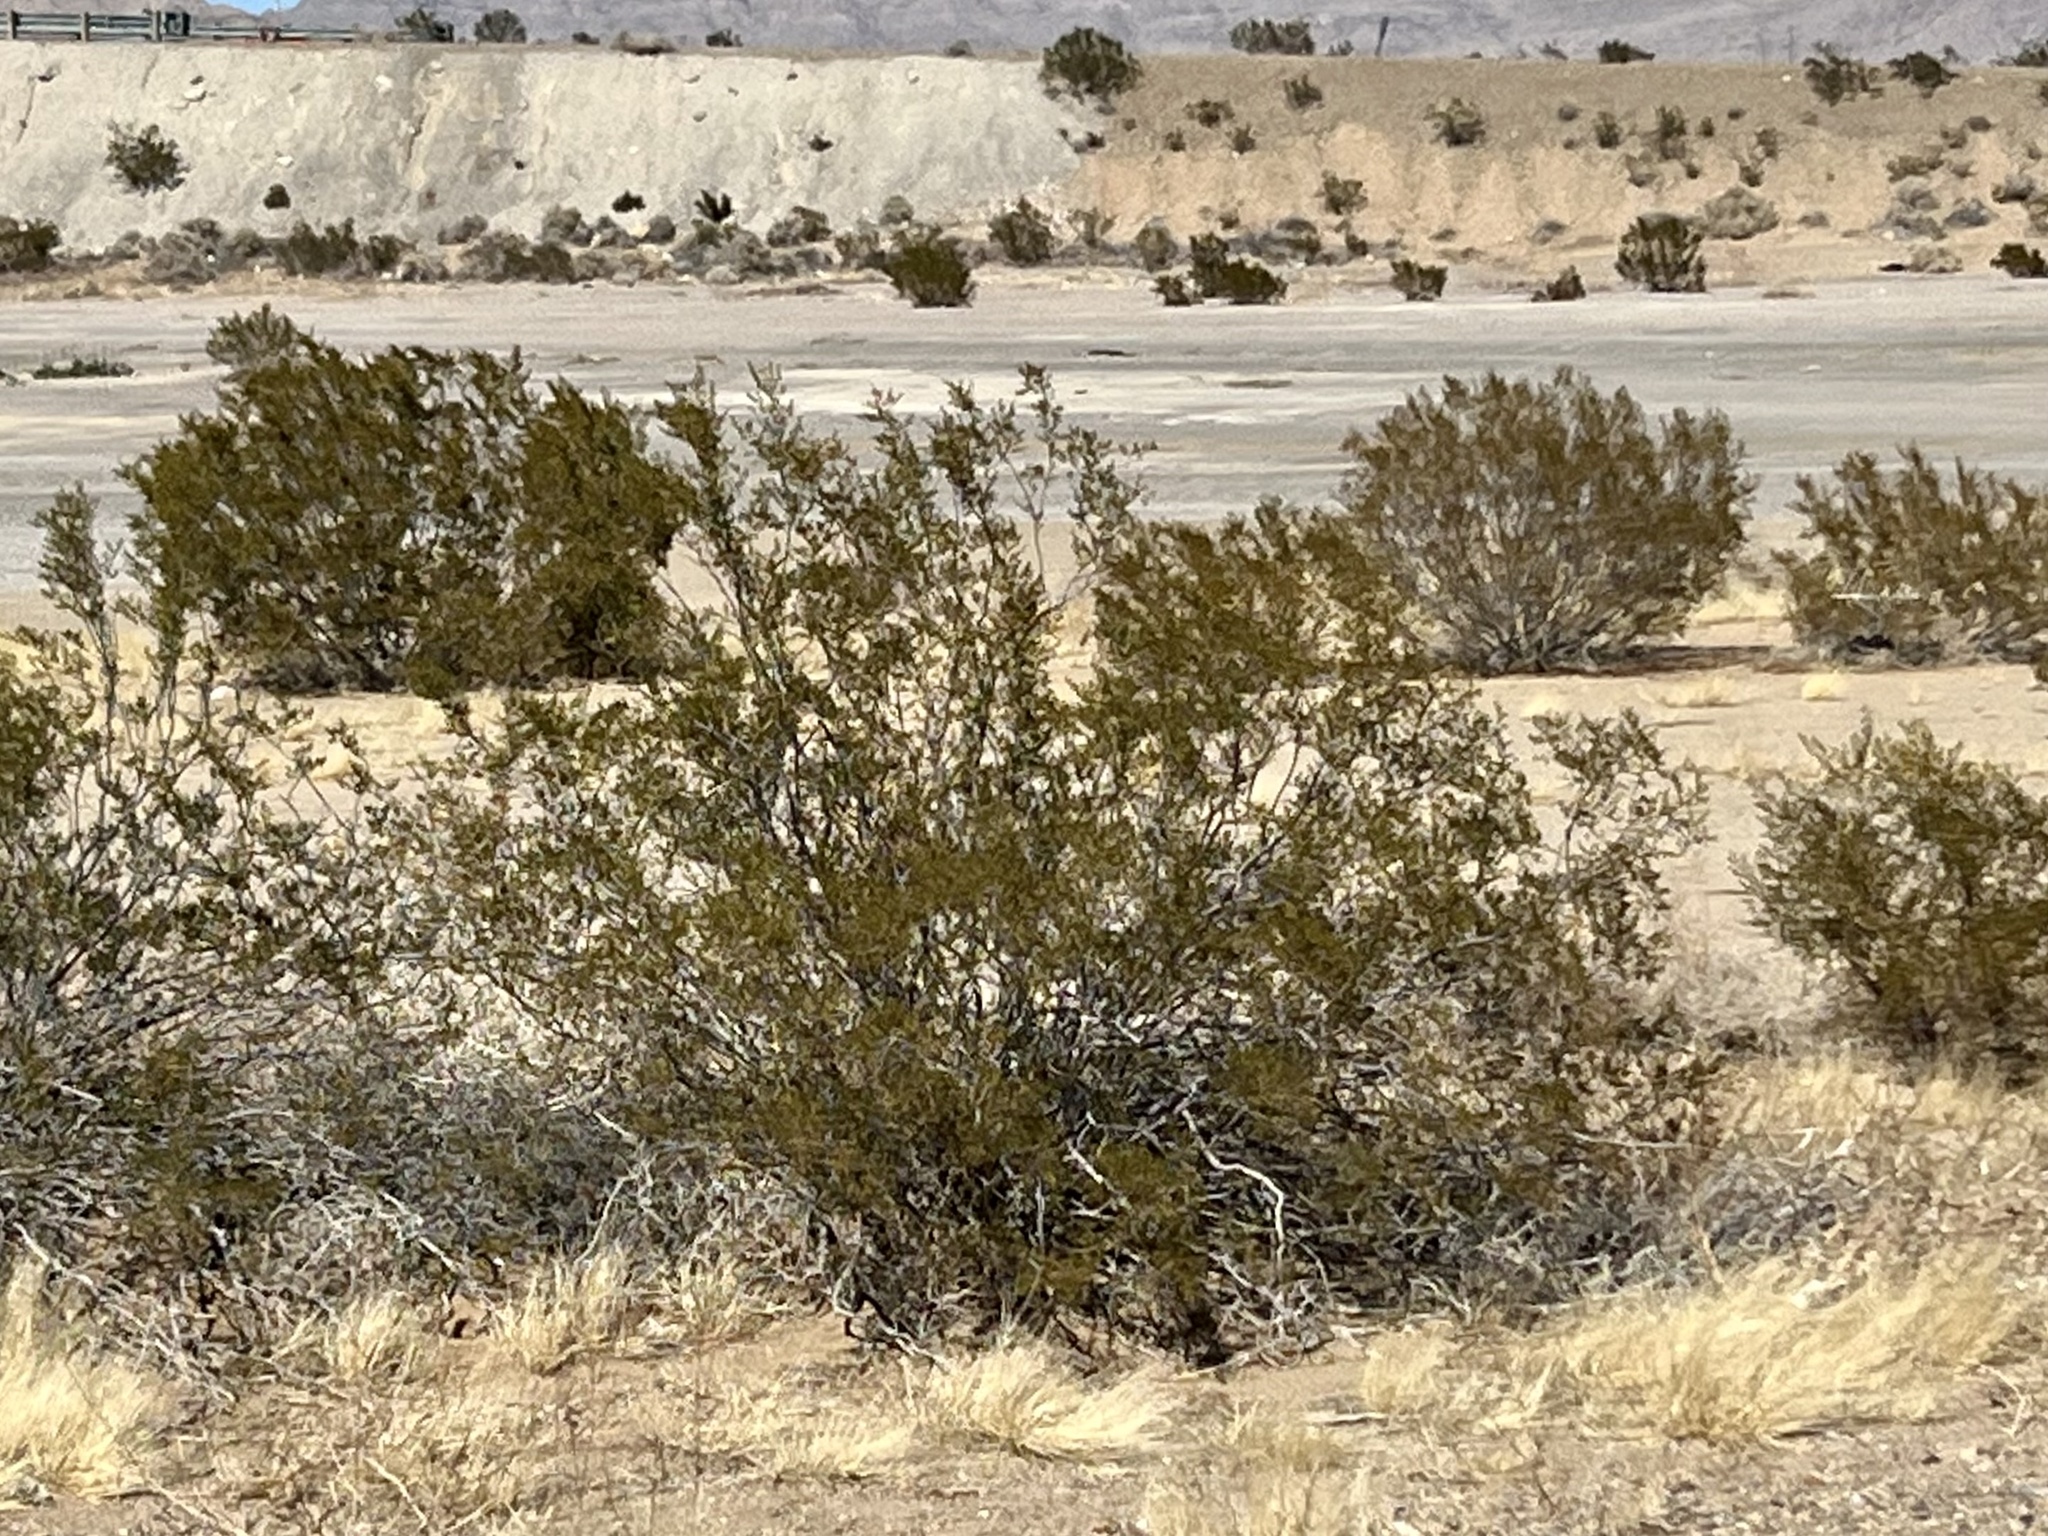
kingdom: Plantae
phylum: Tracheophyta
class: Magnoliopsida
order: Zygophyllales
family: Zygophyllaceae
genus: Larrea
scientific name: Larrea tridentata
